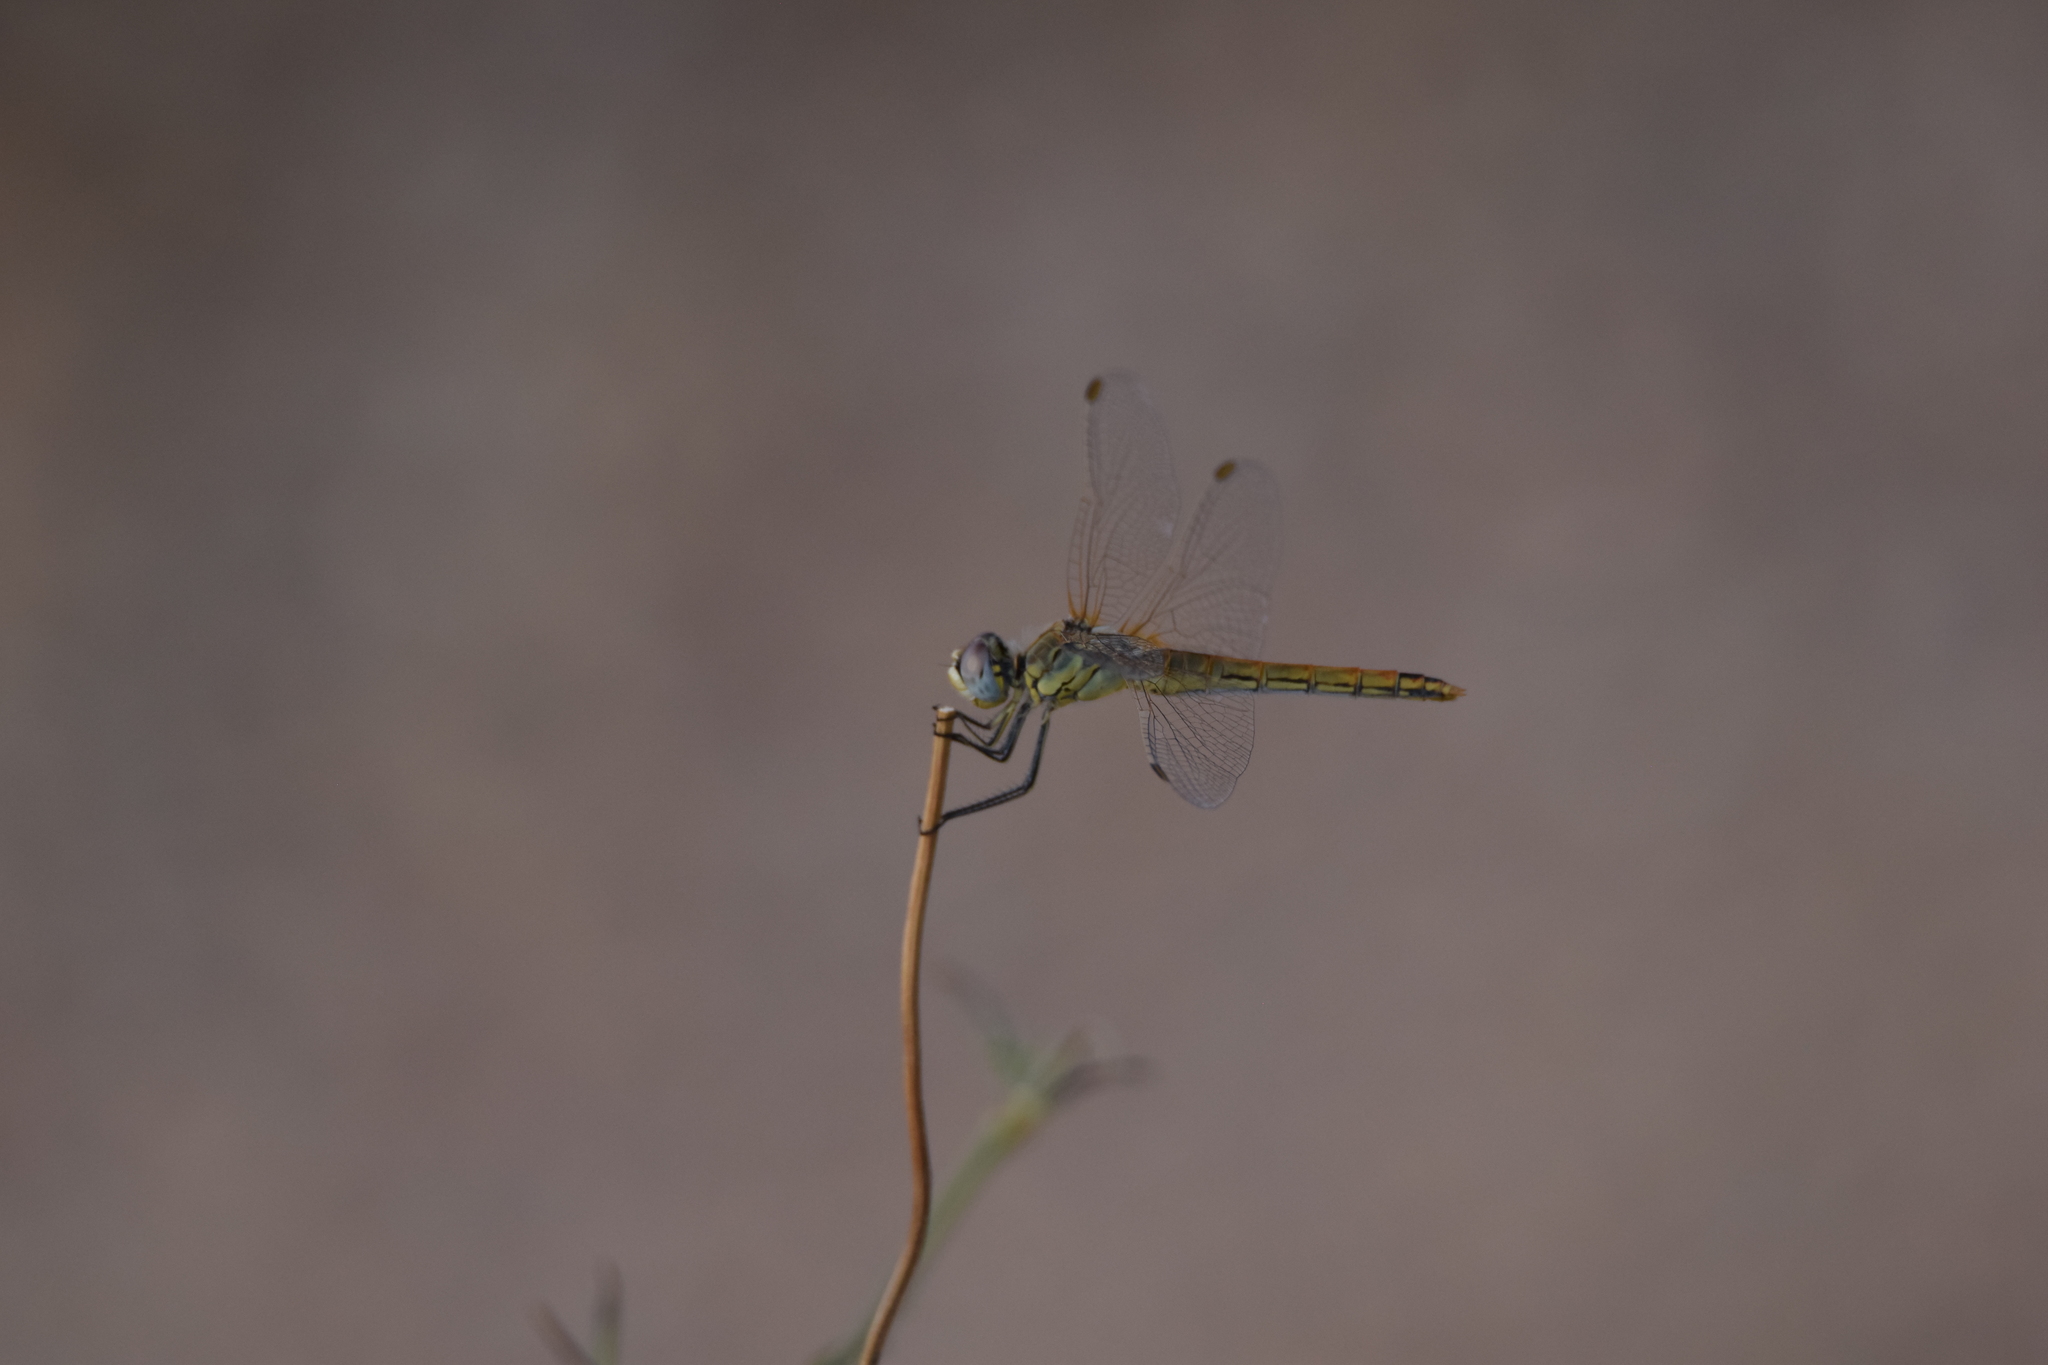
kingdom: Animalia
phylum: Arthropoda
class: Insecta
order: Odonata
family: Libellulidae
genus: Sympetrum
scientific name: Sympetrum fonscolombii
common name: Red-veined darter
